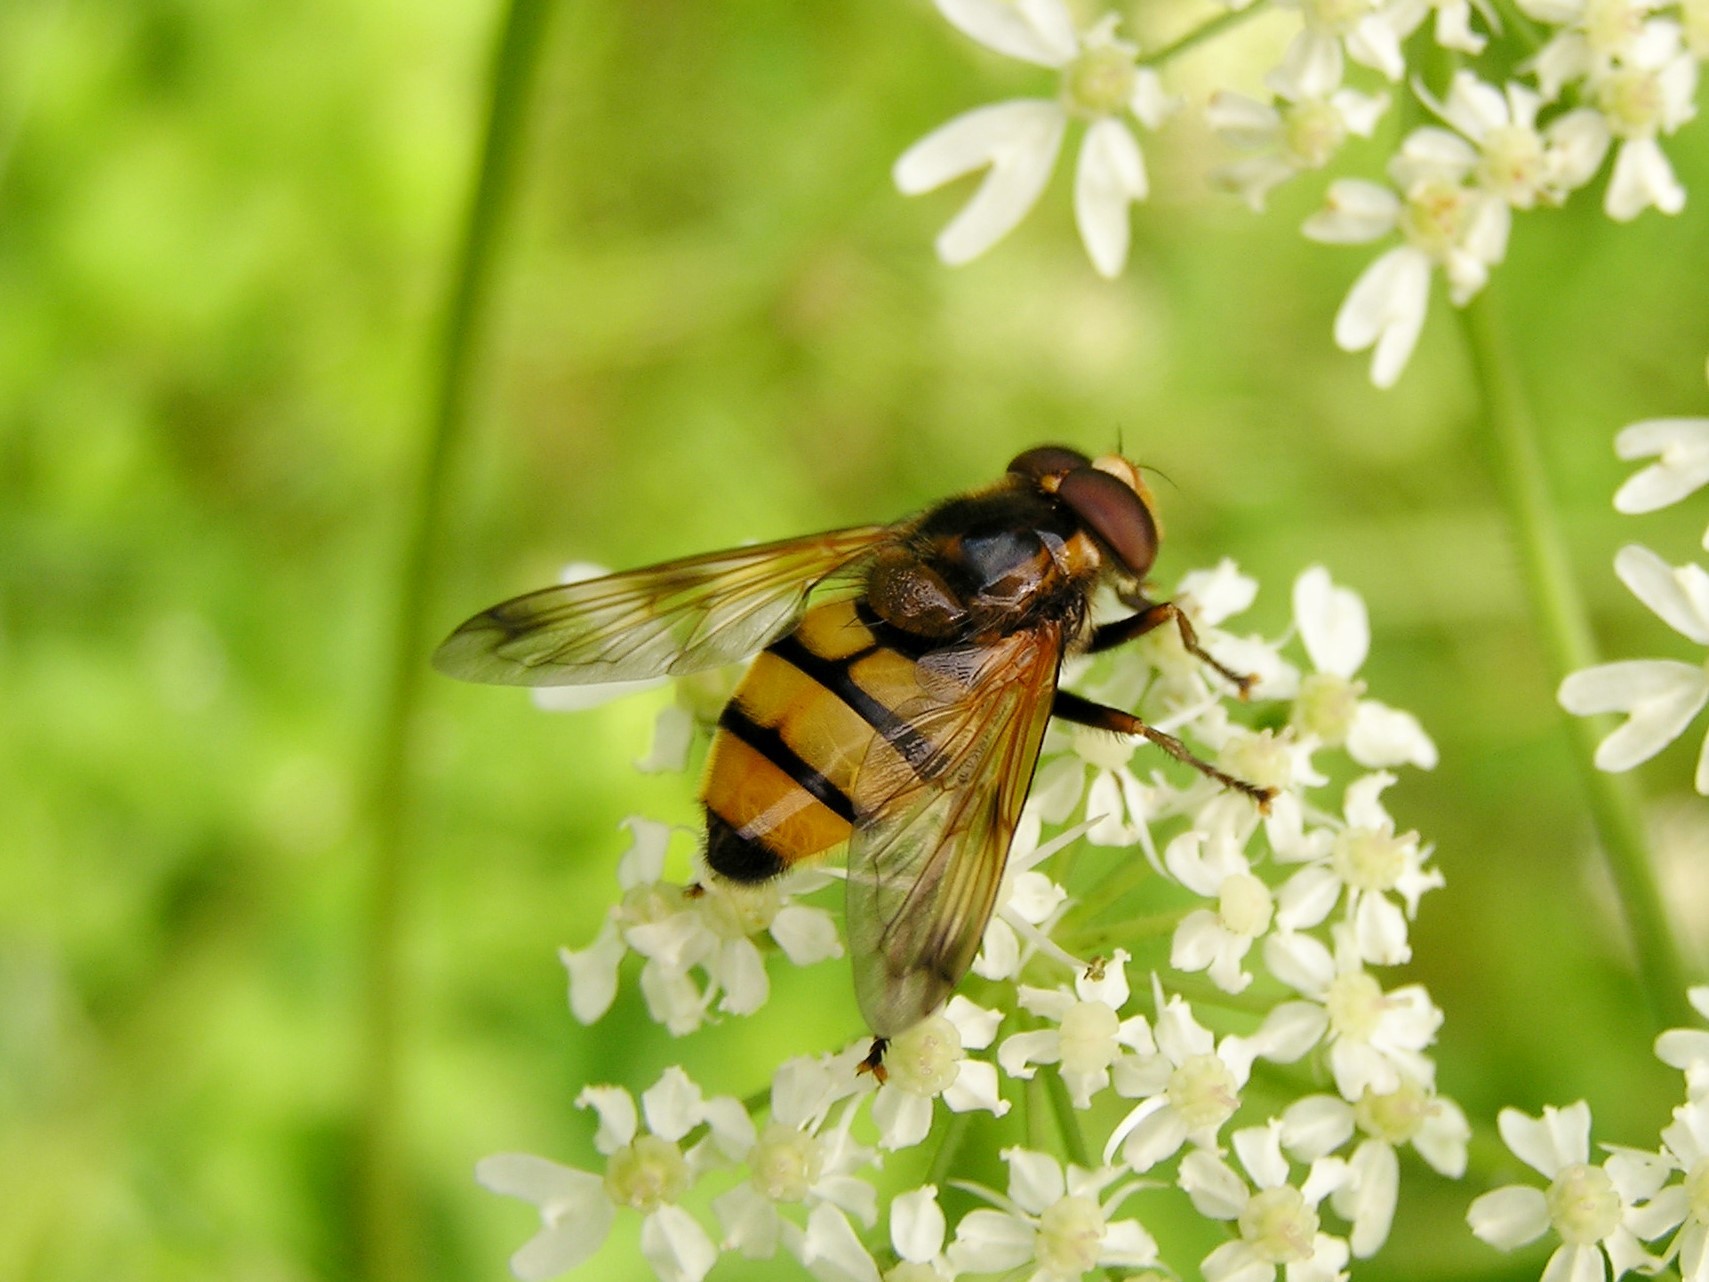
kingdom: Animalia
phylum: Arthropoda
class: Insecta
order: Diptera
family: Syrphidae
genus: Volucella
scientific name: Volucella inanis
